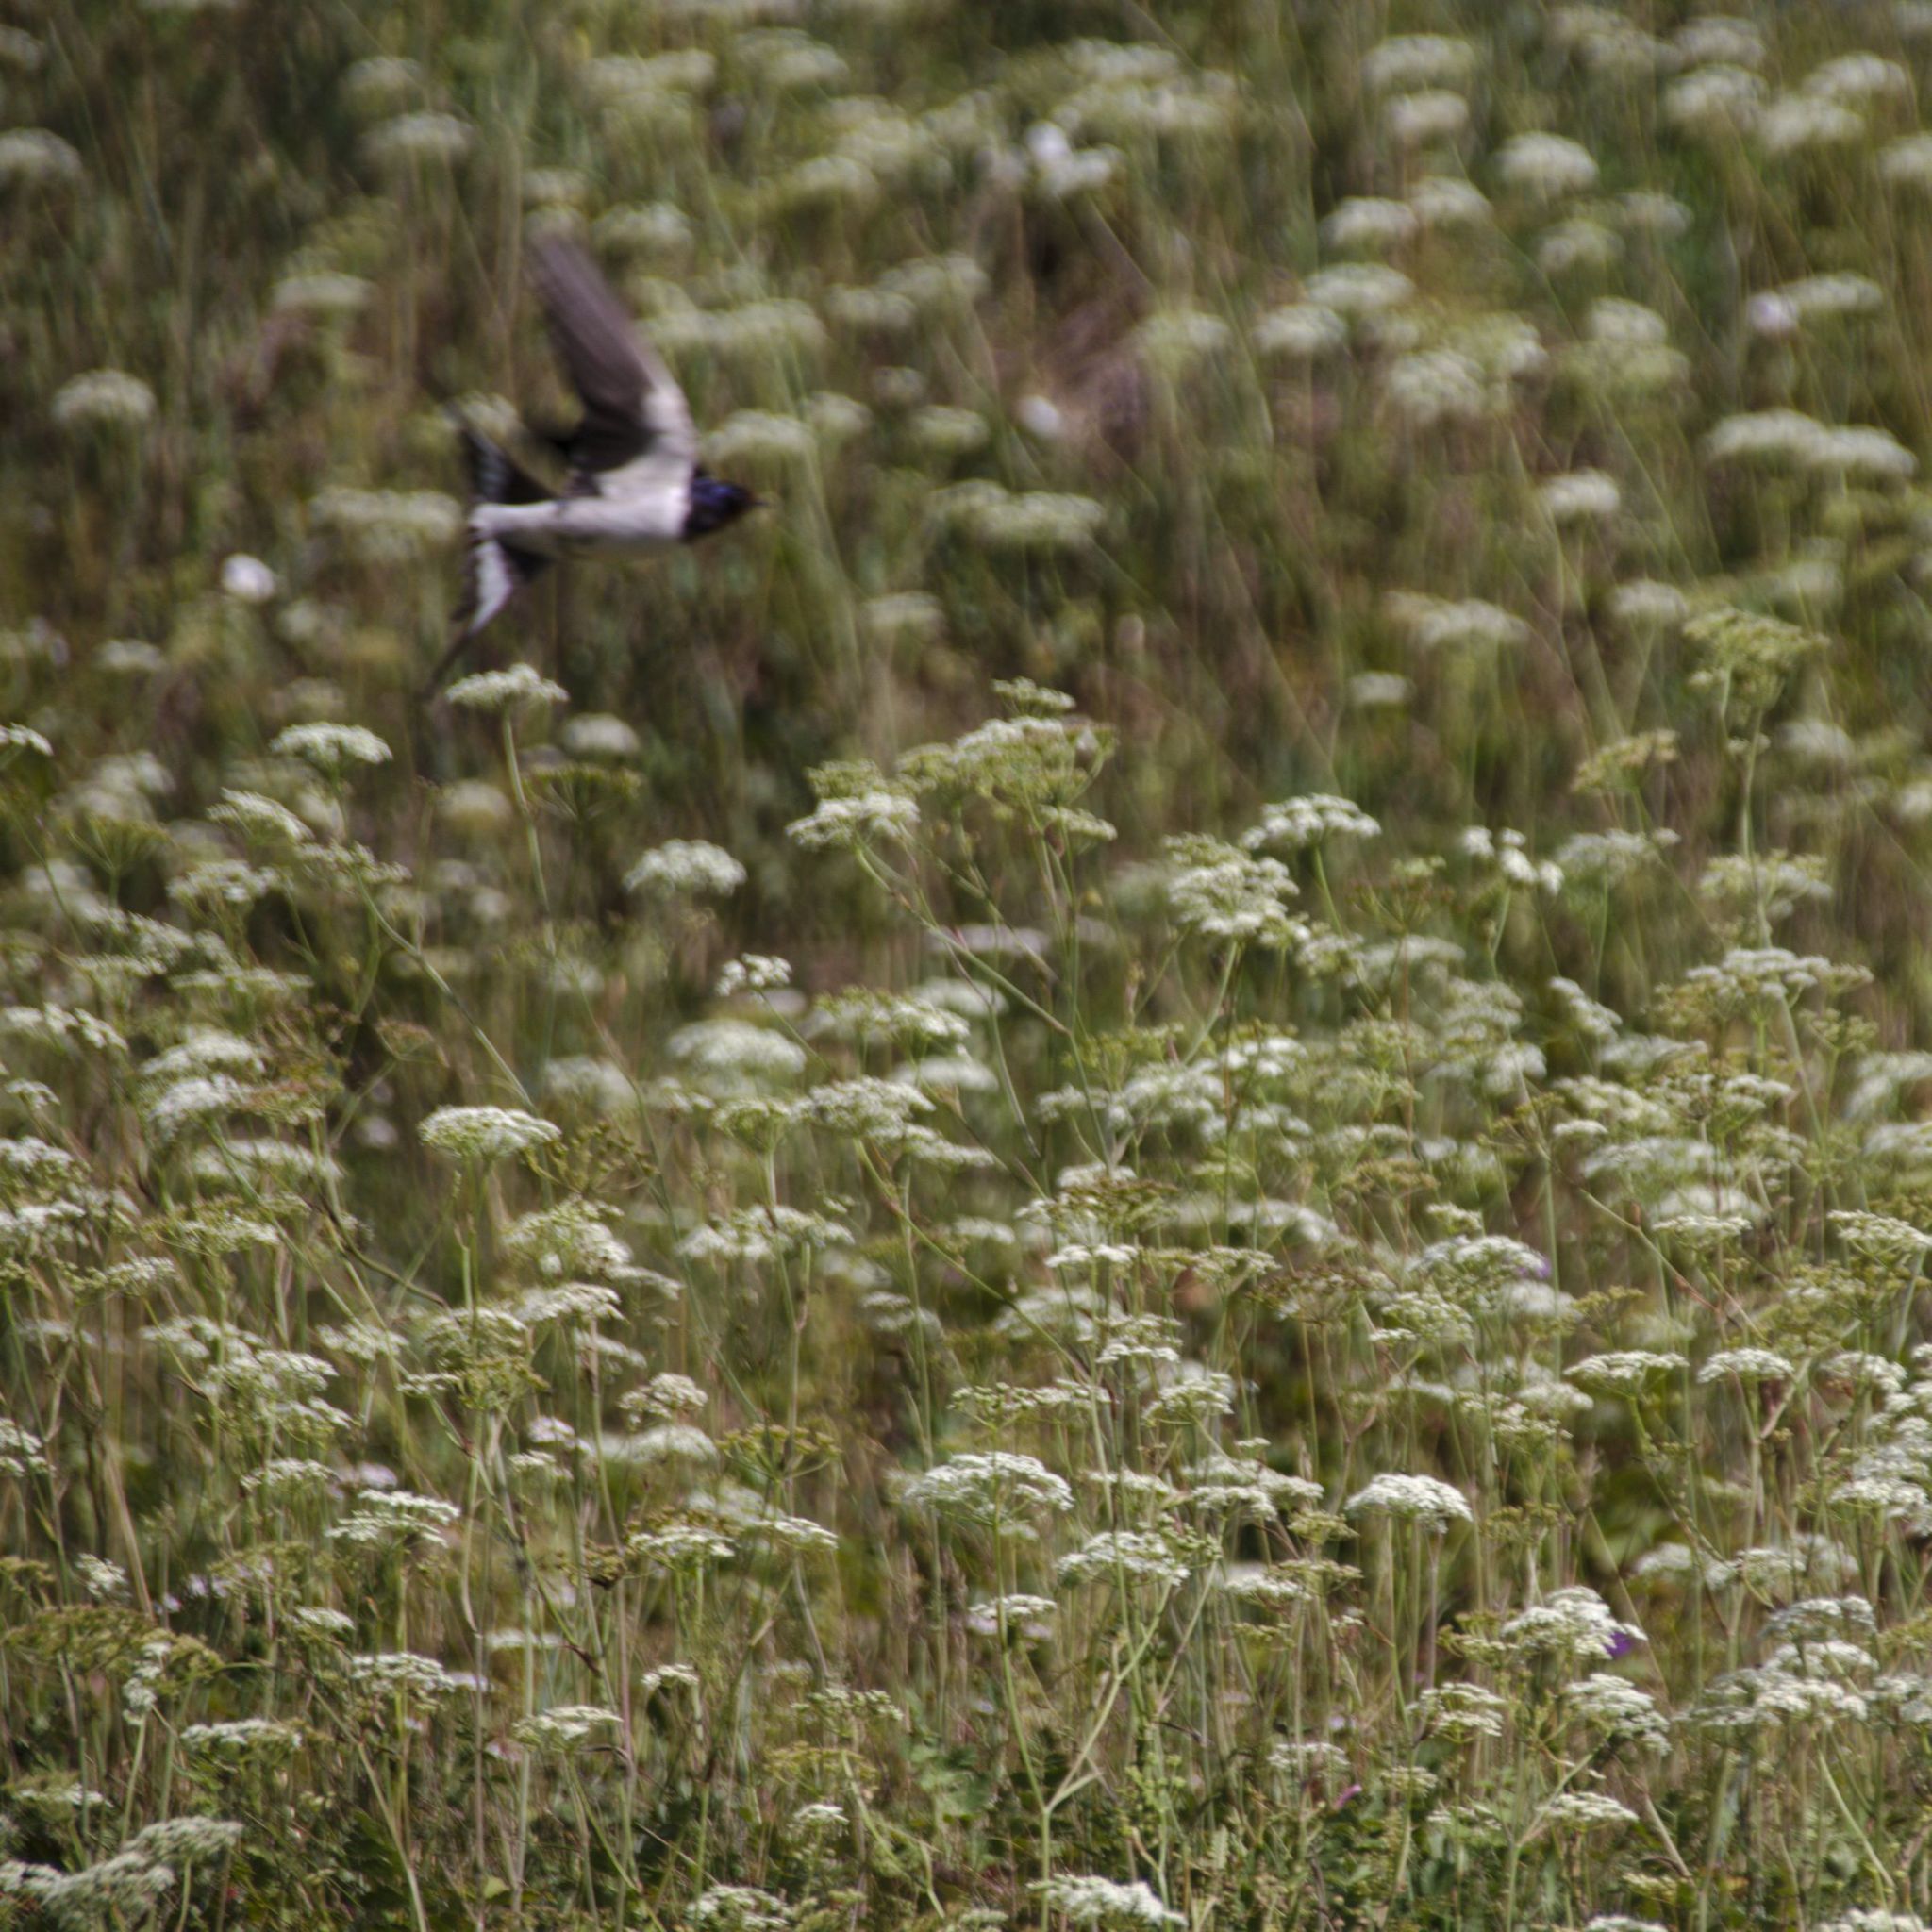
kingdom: Animalia
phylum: Chordata
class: Aves
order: Passeriformes
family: Hirundinidae
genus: Hirundo
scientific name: Hirundo rustica
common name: Barn swallow
